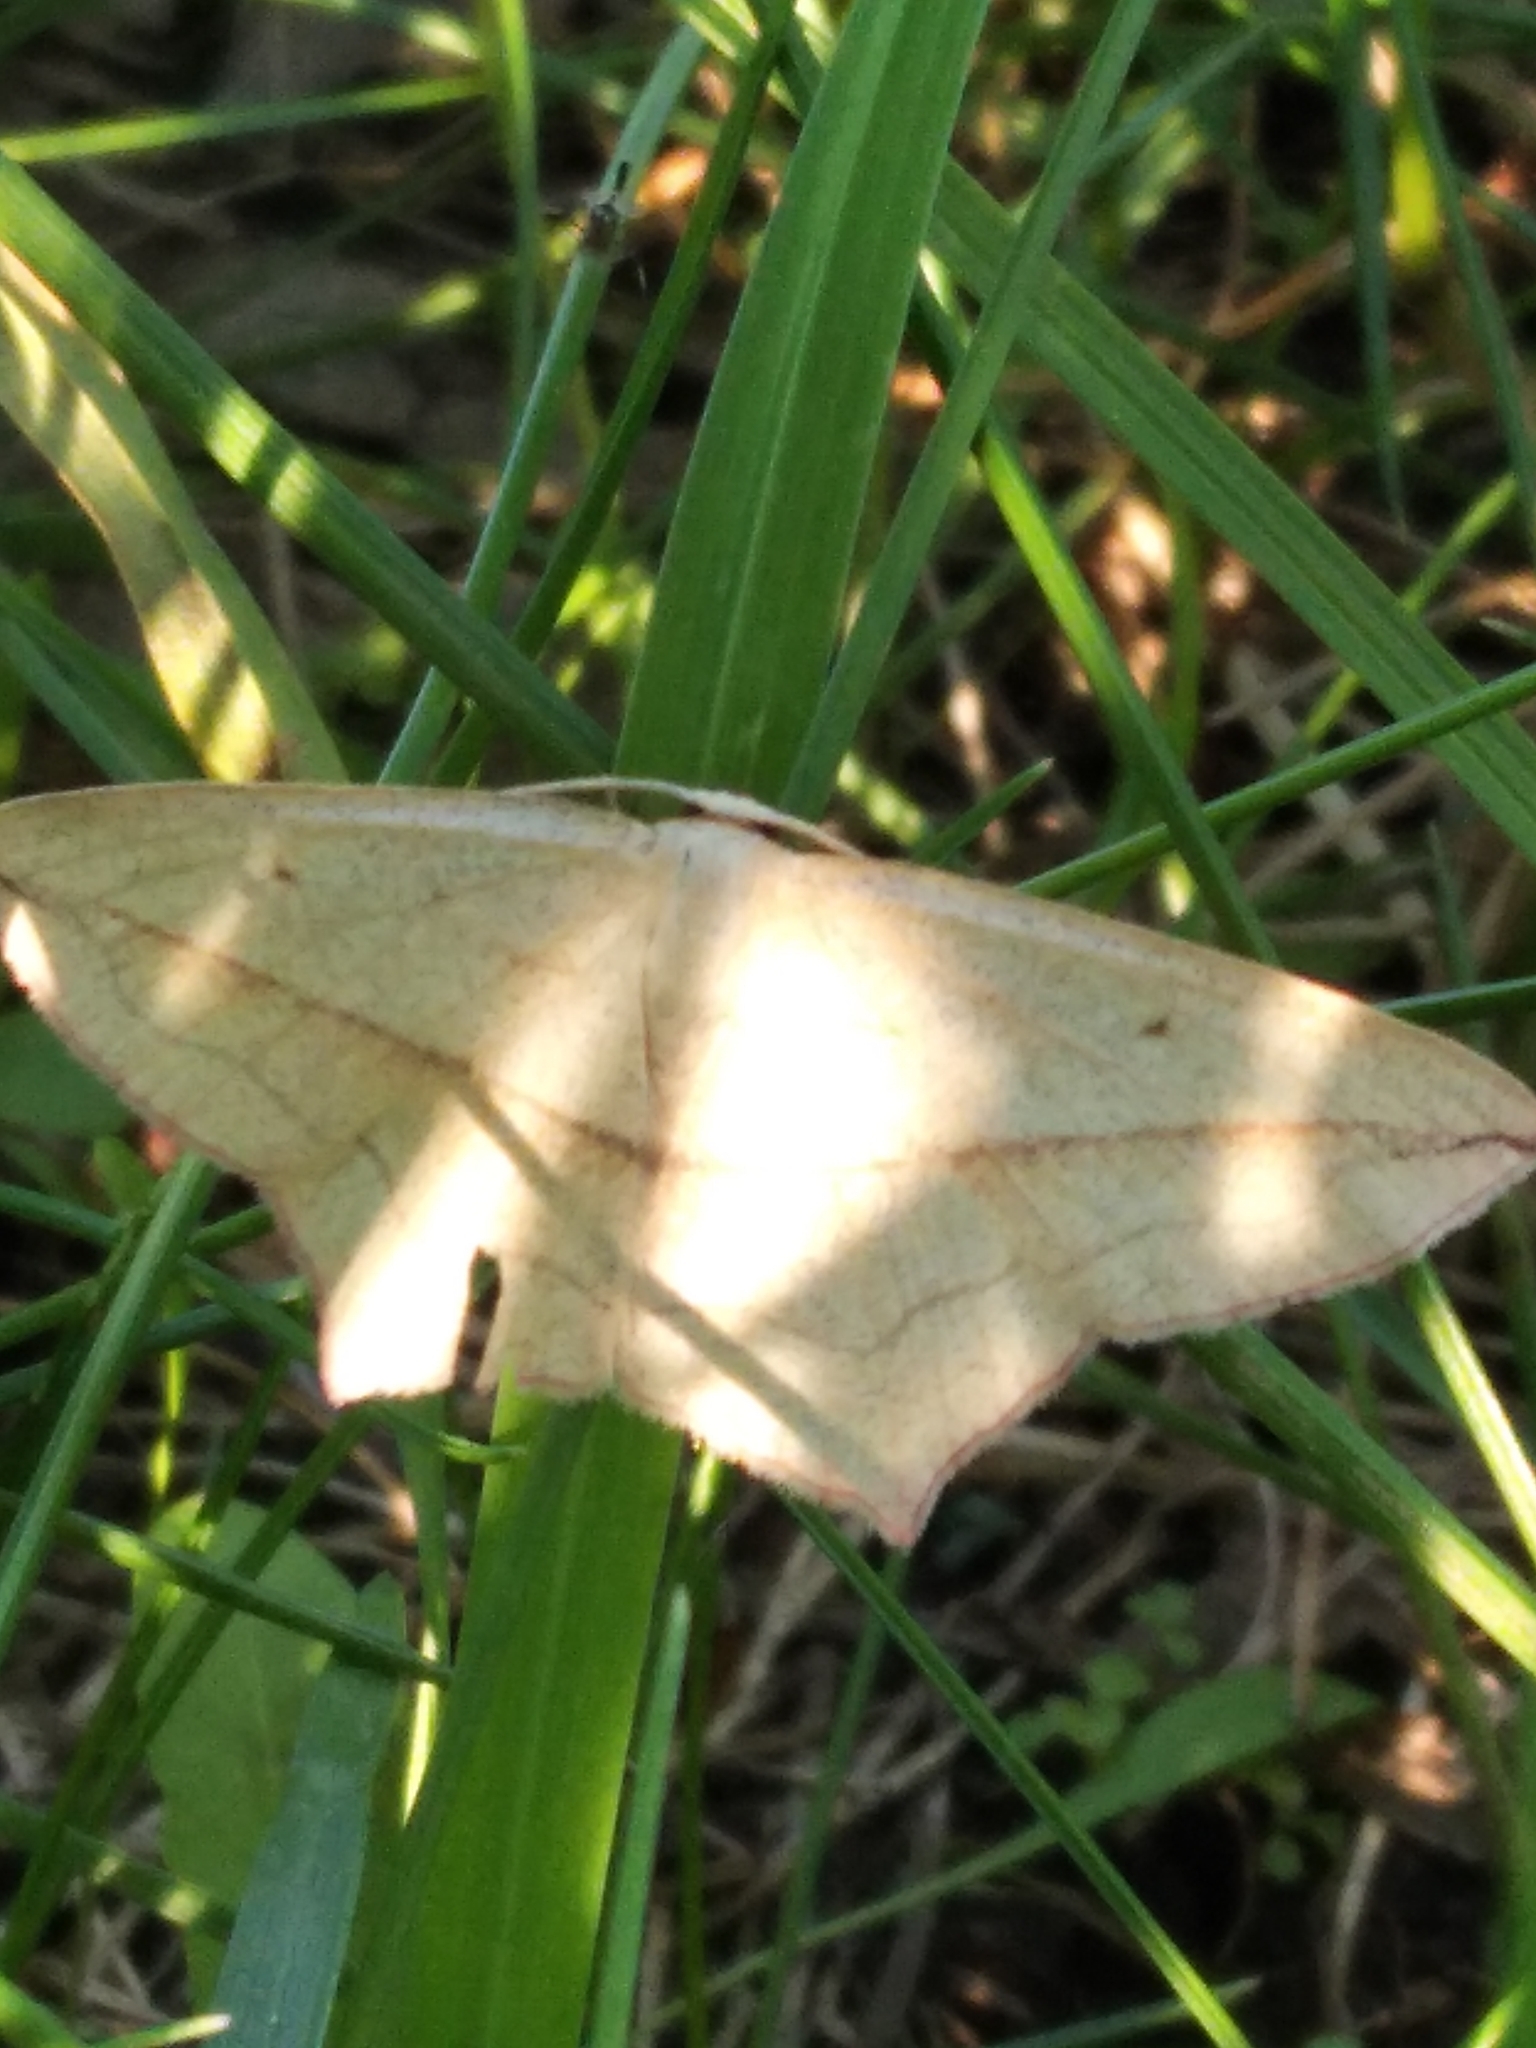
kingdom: Animalia
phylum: Arthropoda
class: Insecta
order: Lepidoptera
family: Geometridae
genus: Timandra
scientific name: Timandra comae
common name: Blood-vein
